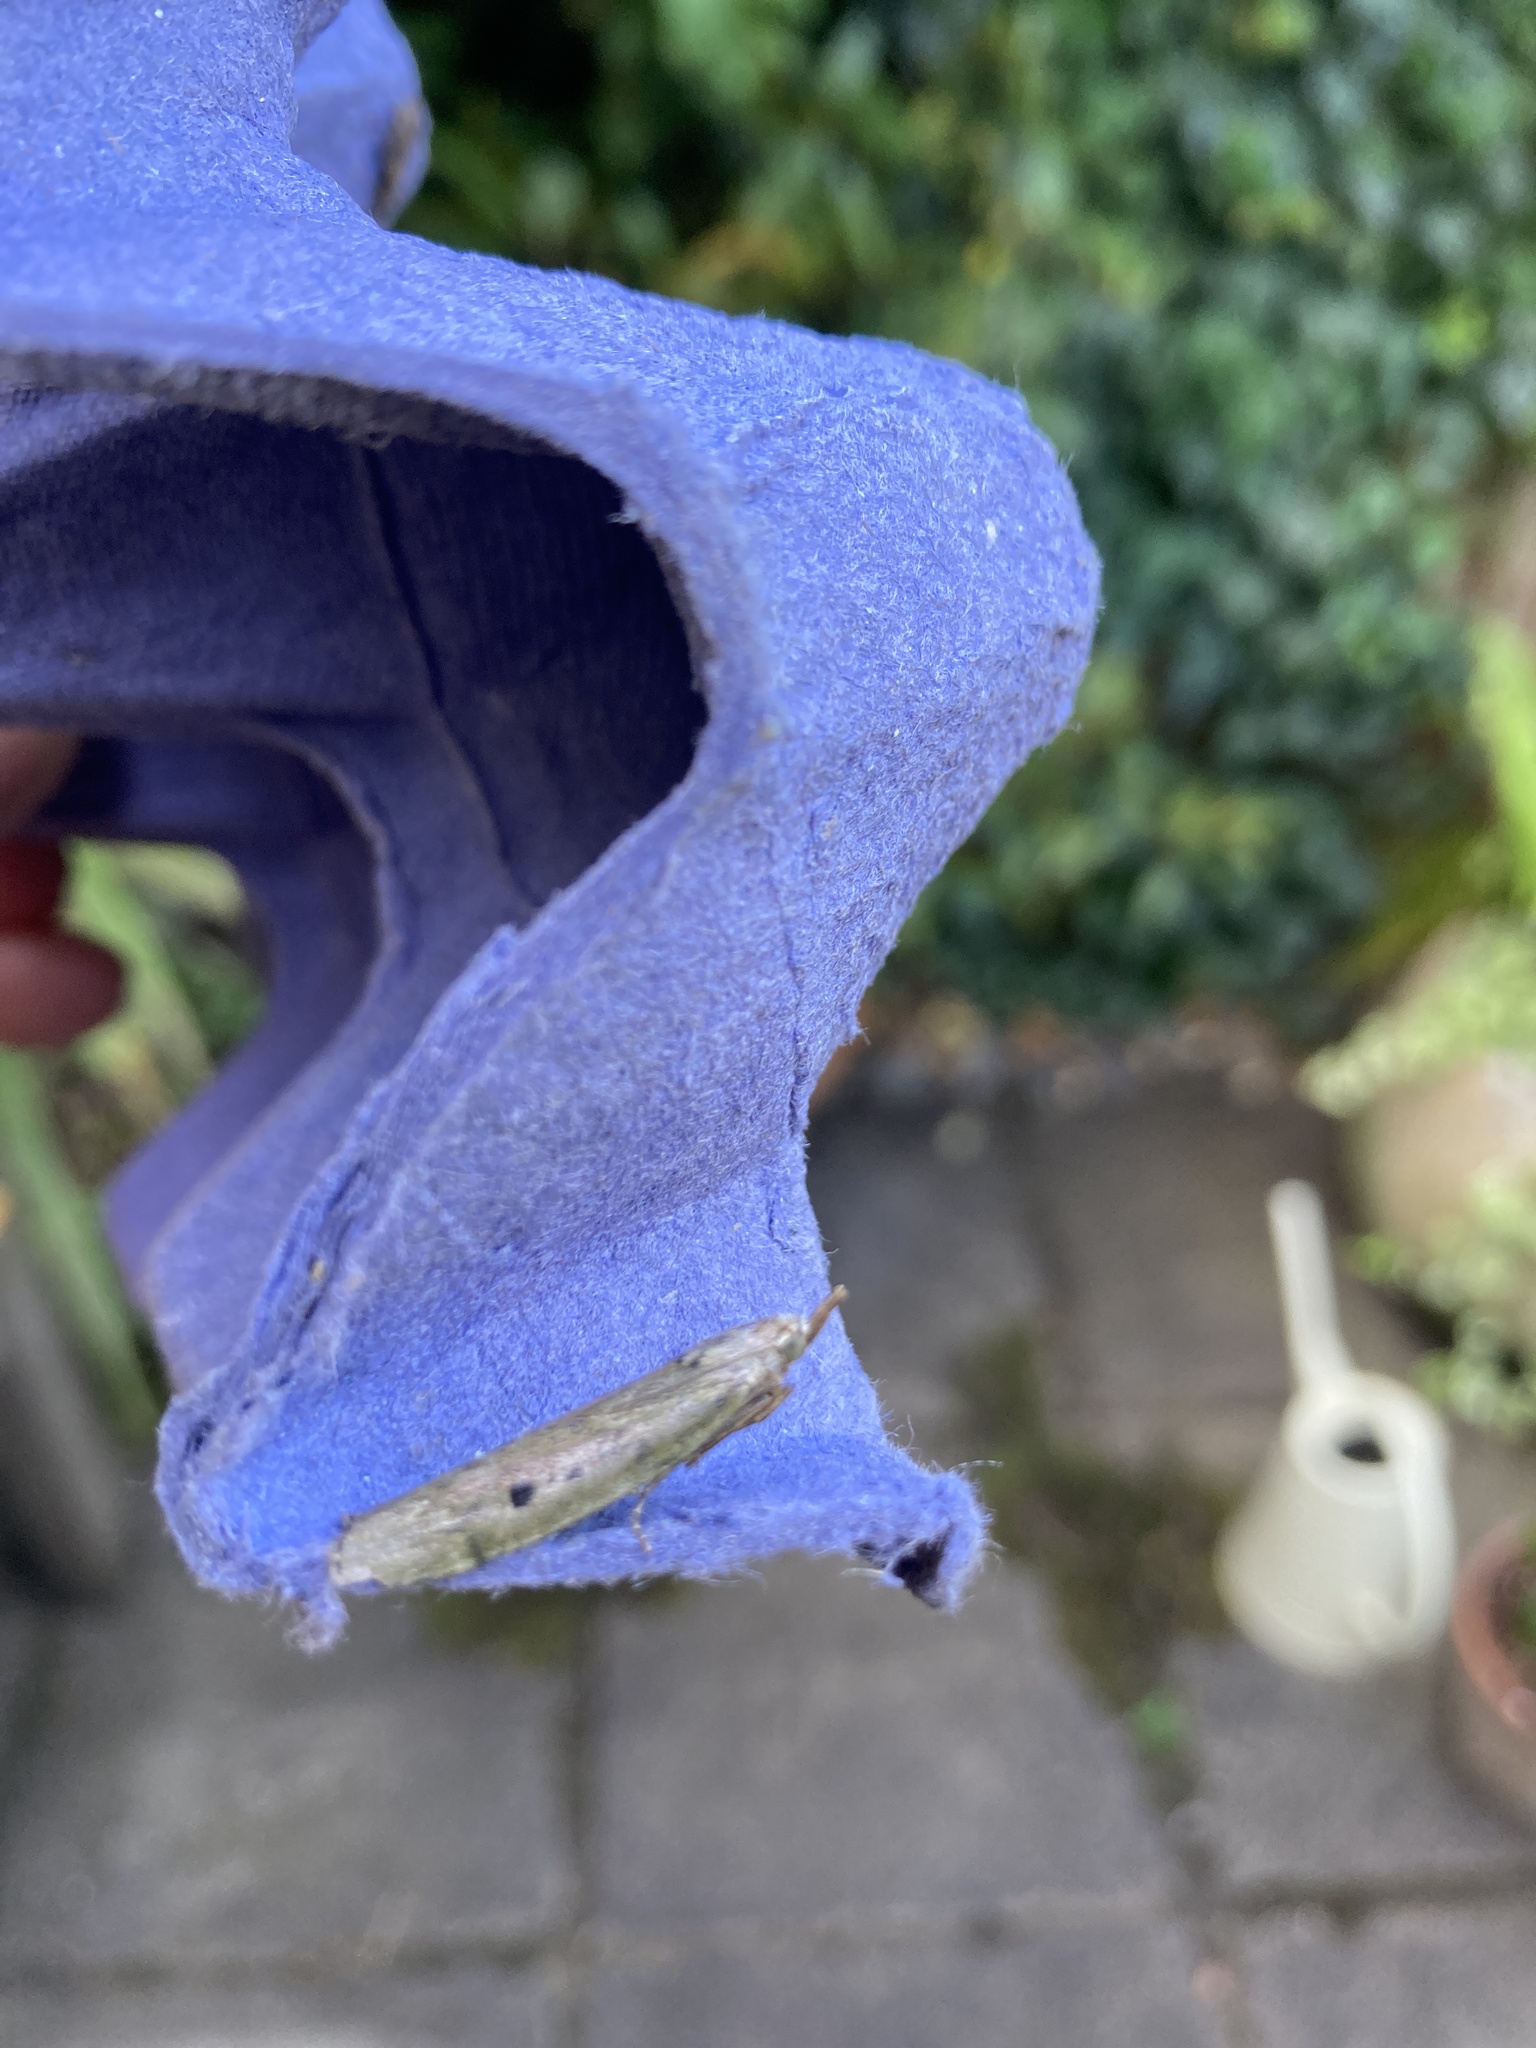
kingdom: Animalia
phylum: Arthropoda
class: Insecta
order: Lepidoptera
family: Pyralidae
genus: Aphomia
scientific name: Aphomia sociella
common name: Bee moth
